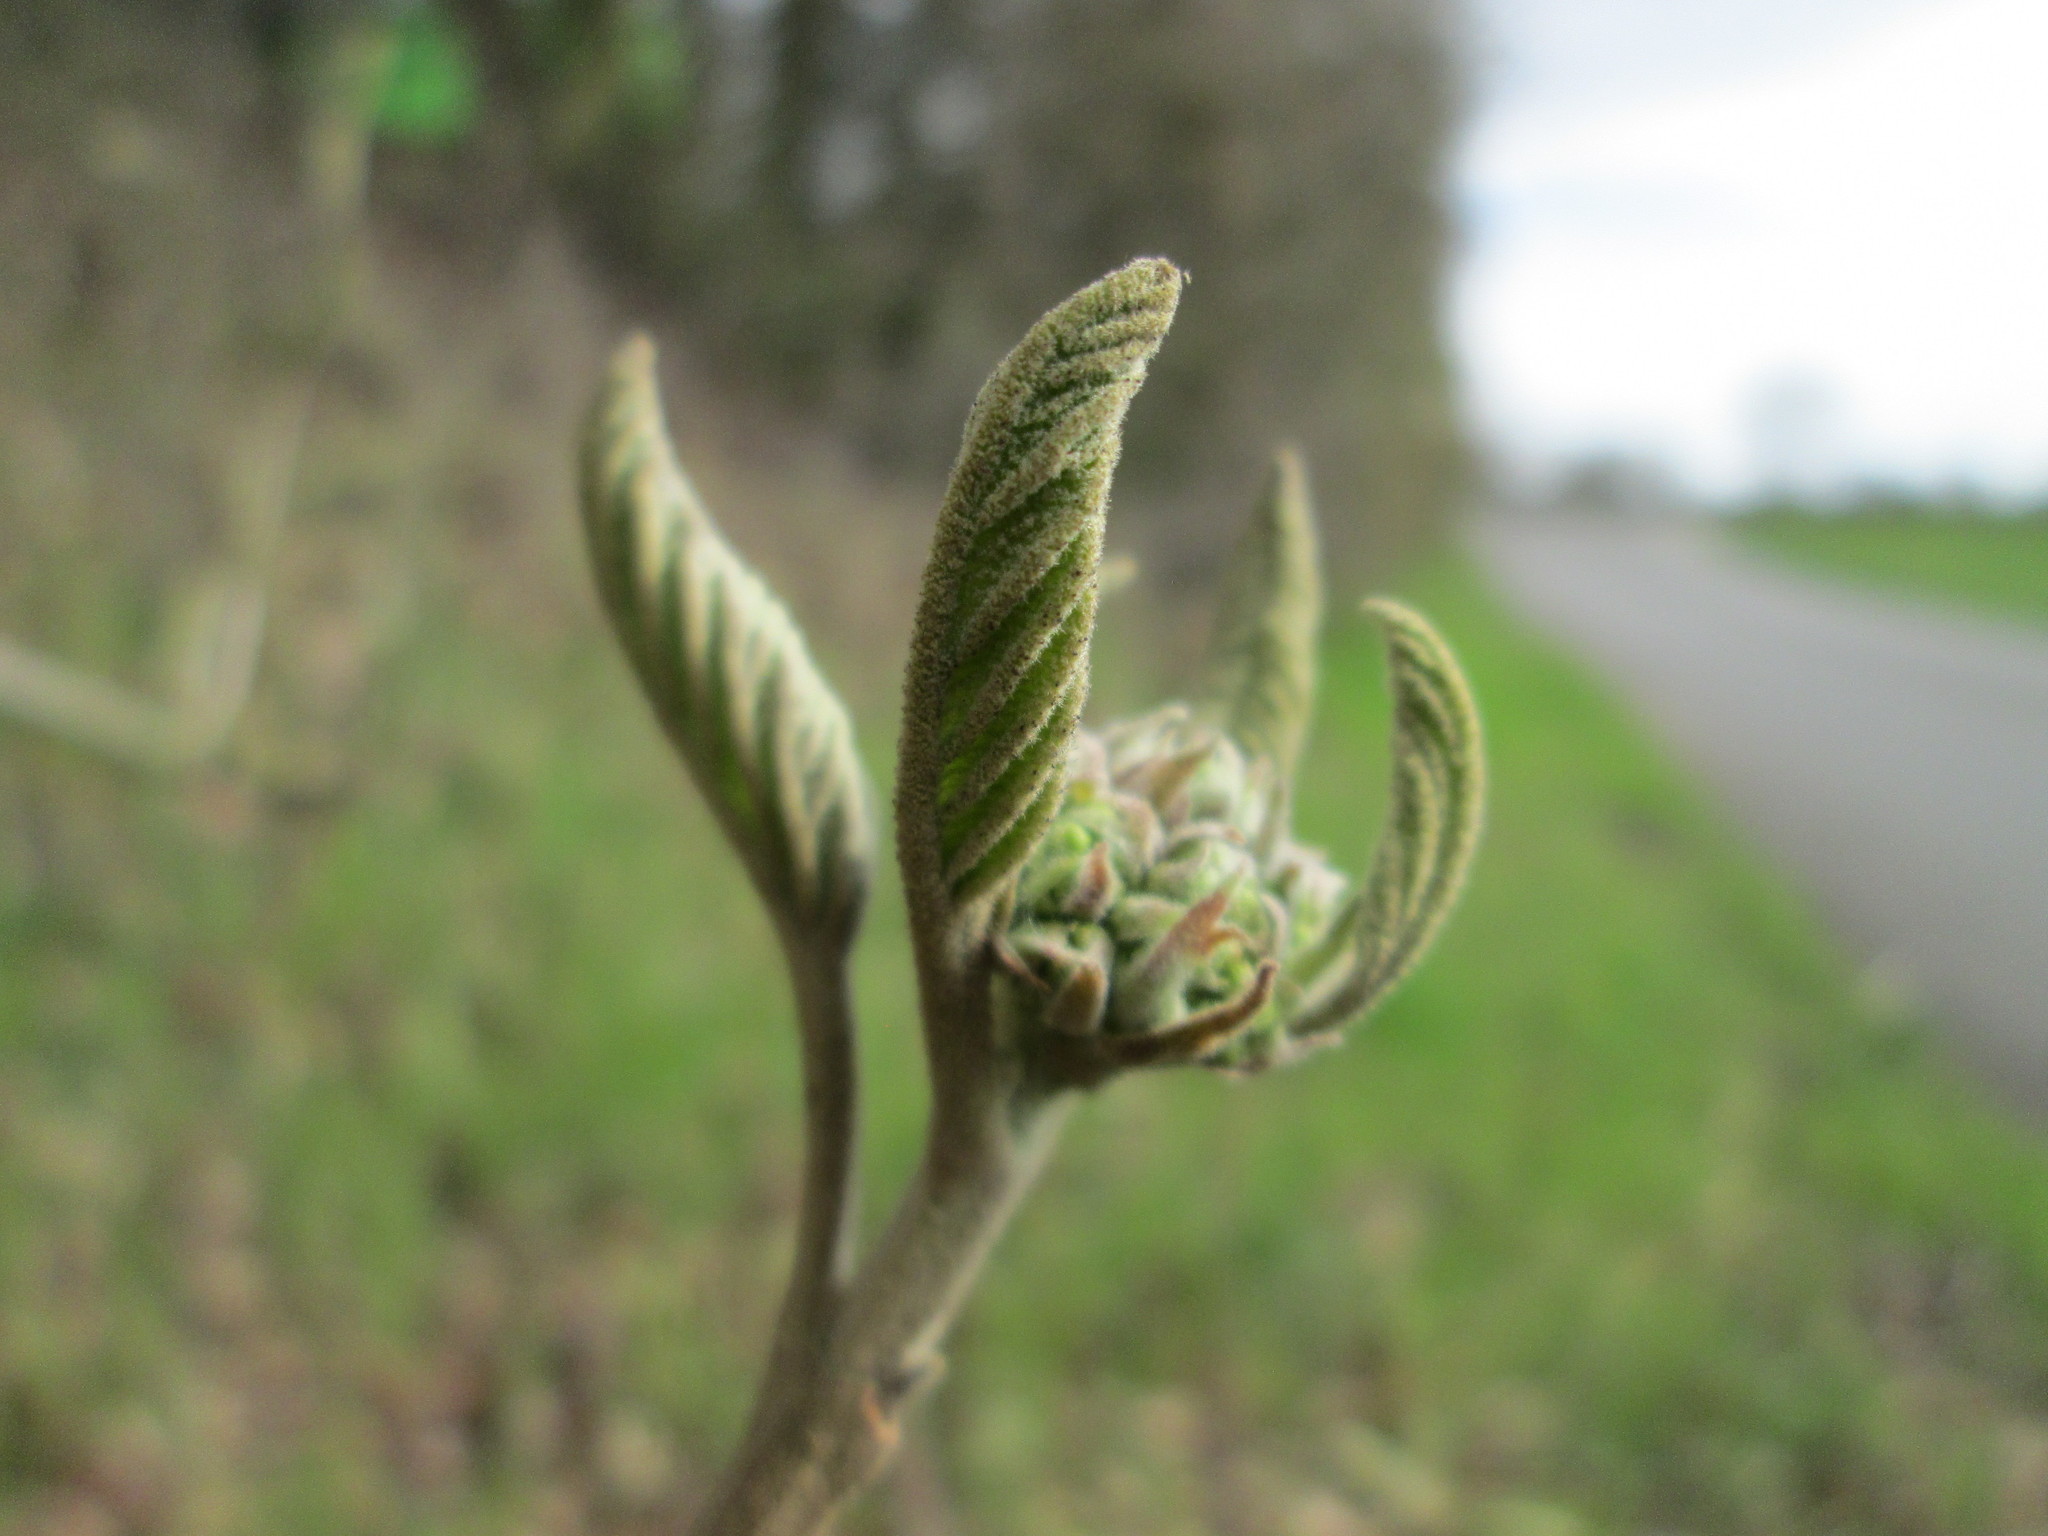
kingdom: Plantae
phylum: Tracheophyta
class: Magnoliopsida
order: Dipsacales
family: Viburnaceae
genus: Viburnum
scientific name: Viburnum lantana
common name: Wayfaring tree
